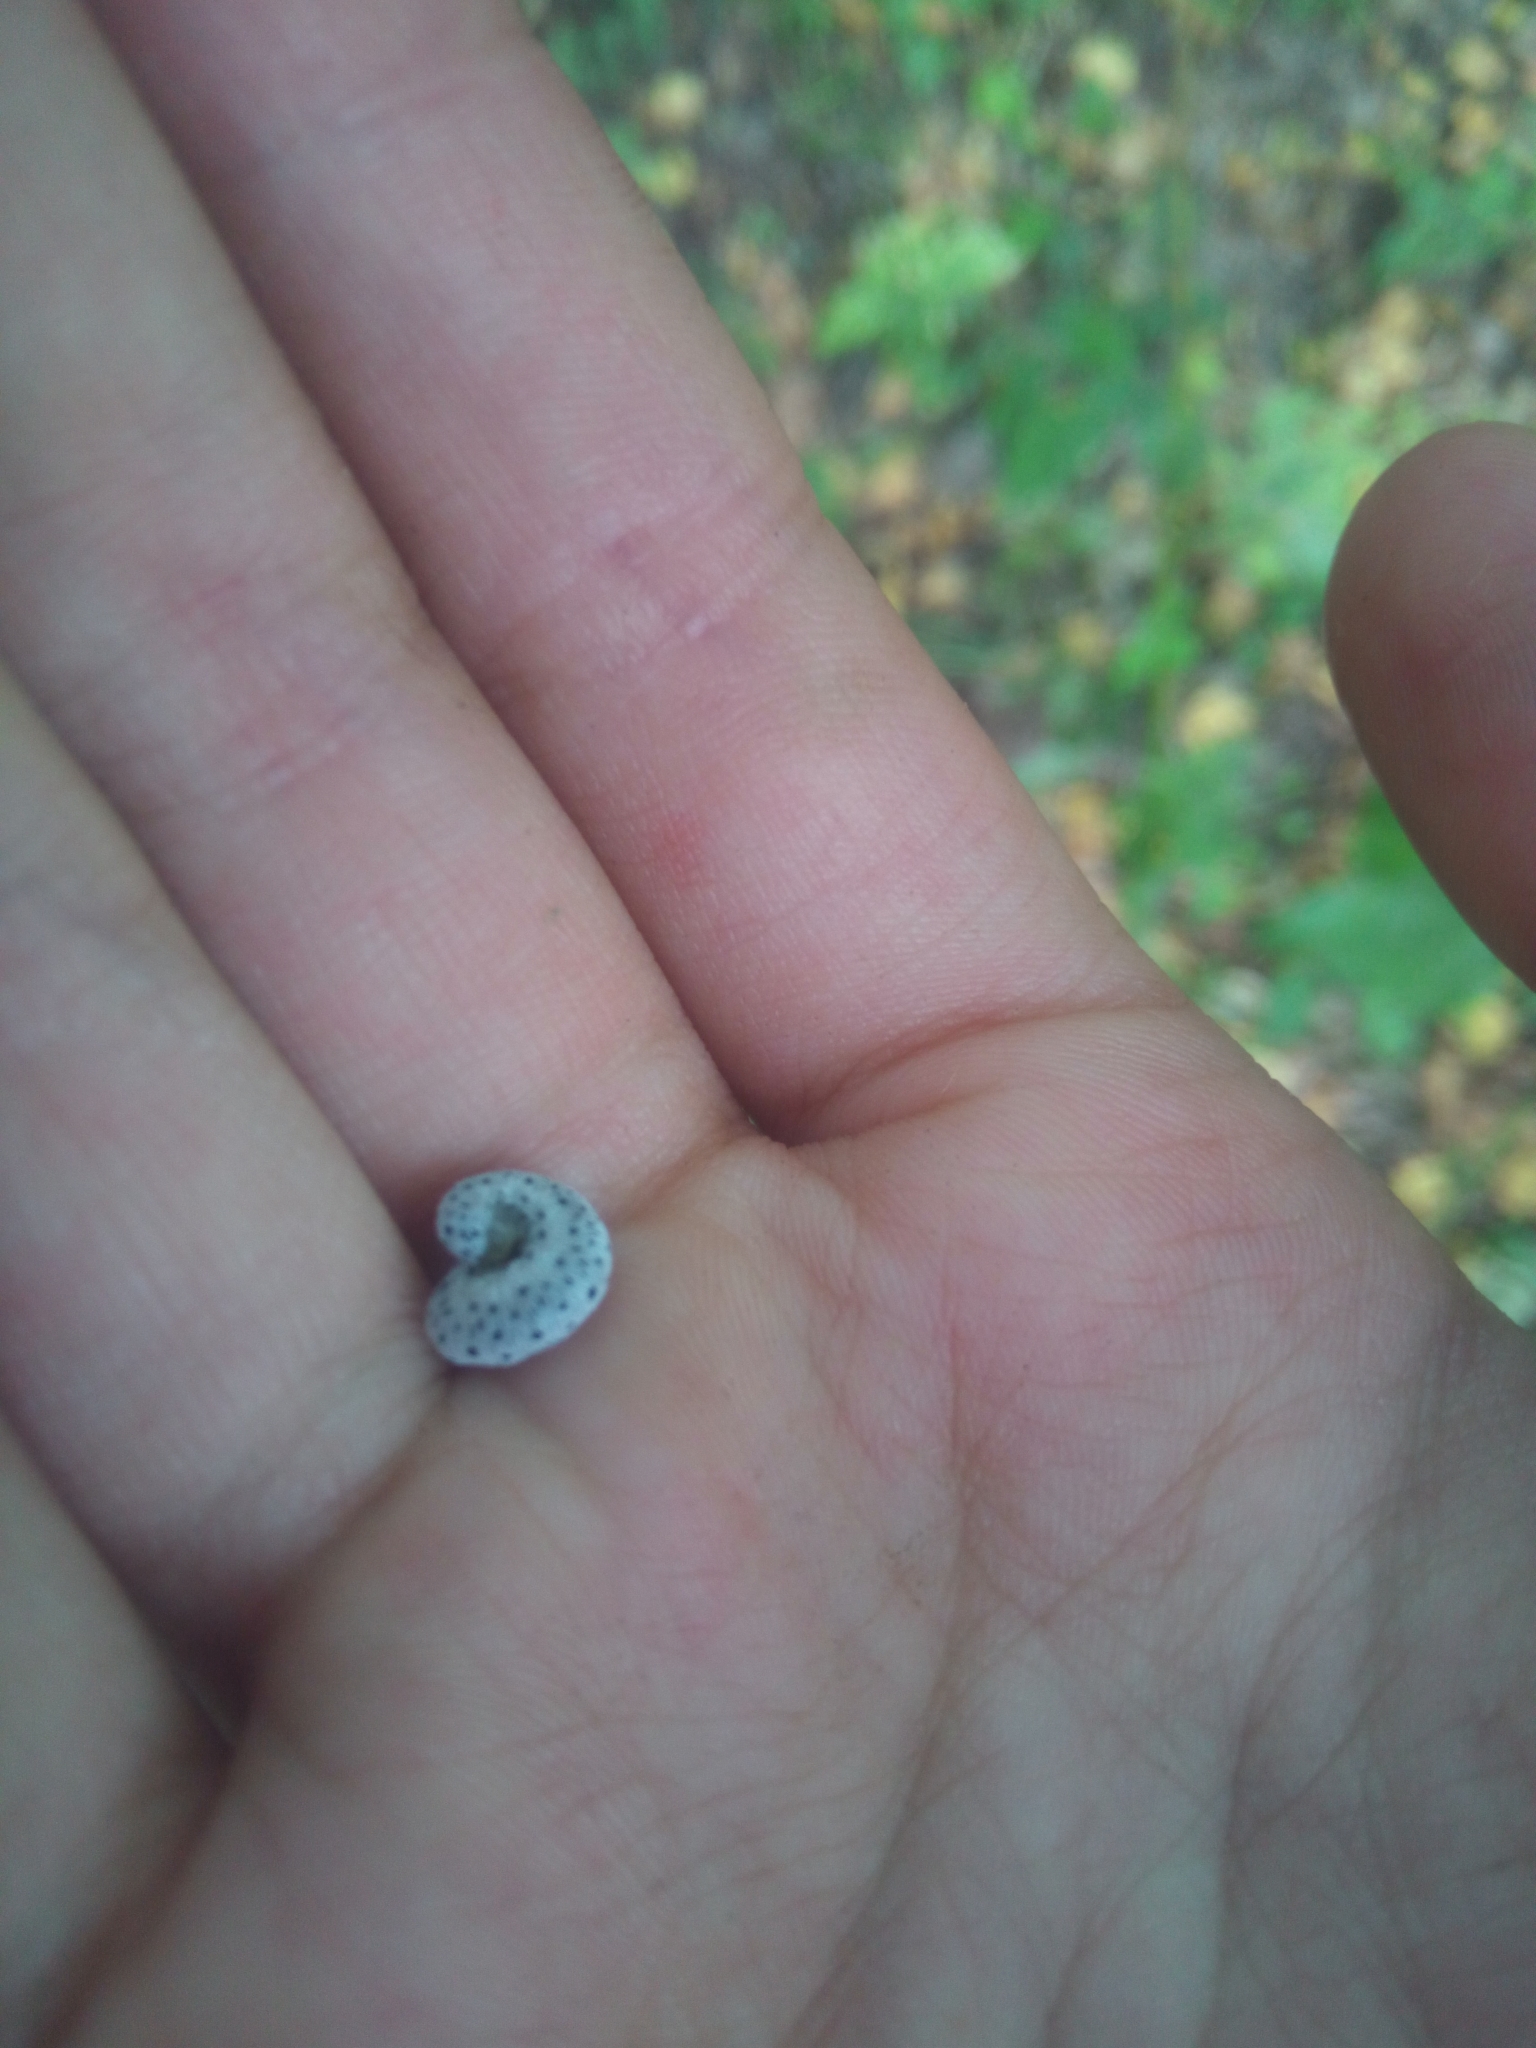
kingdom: Animalia
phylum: Arthropoda
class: Insecta
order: Hymenoptera
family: Tenthredinidae
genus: Tenthredo
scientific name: Tenthredo scrophulariae
